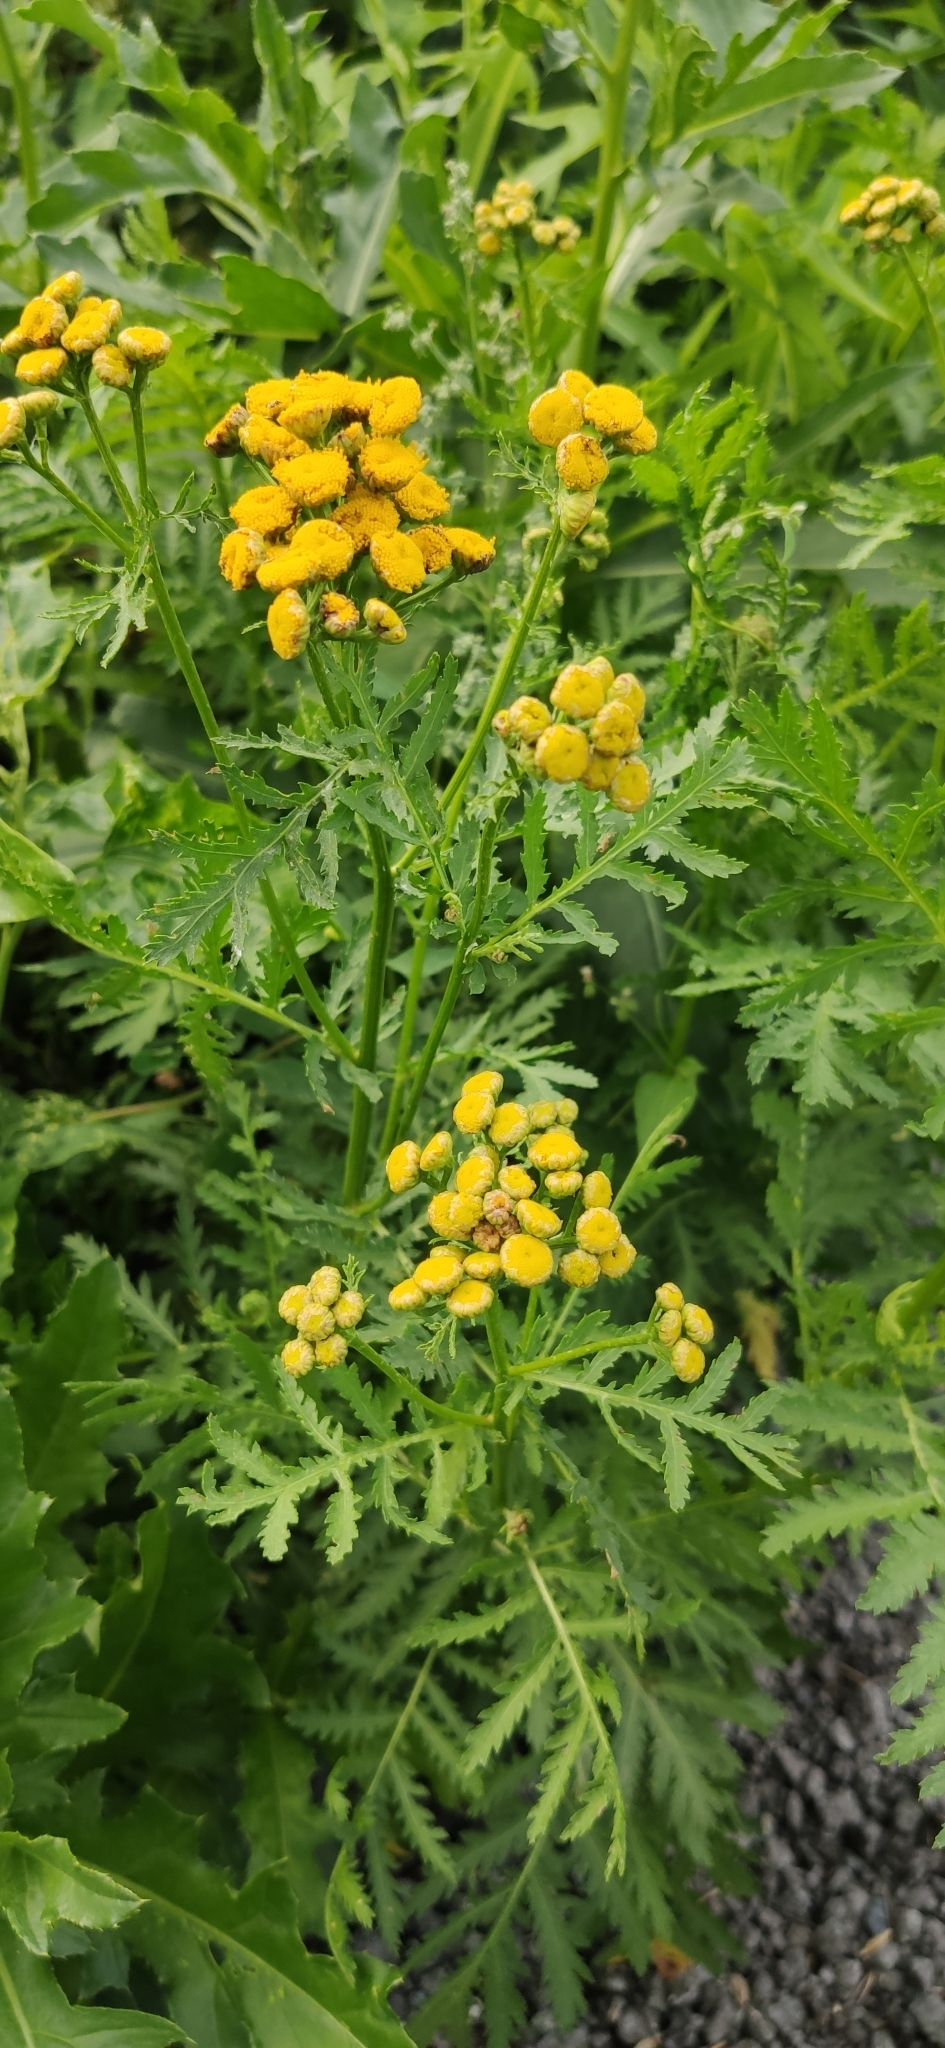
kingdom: Plantae
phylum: Tracheophyta
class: Magnoliopsida
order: Asterales
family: Asteraceae
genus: Tanacetum
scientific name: Tanacetum vulgare
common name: Common tansy
